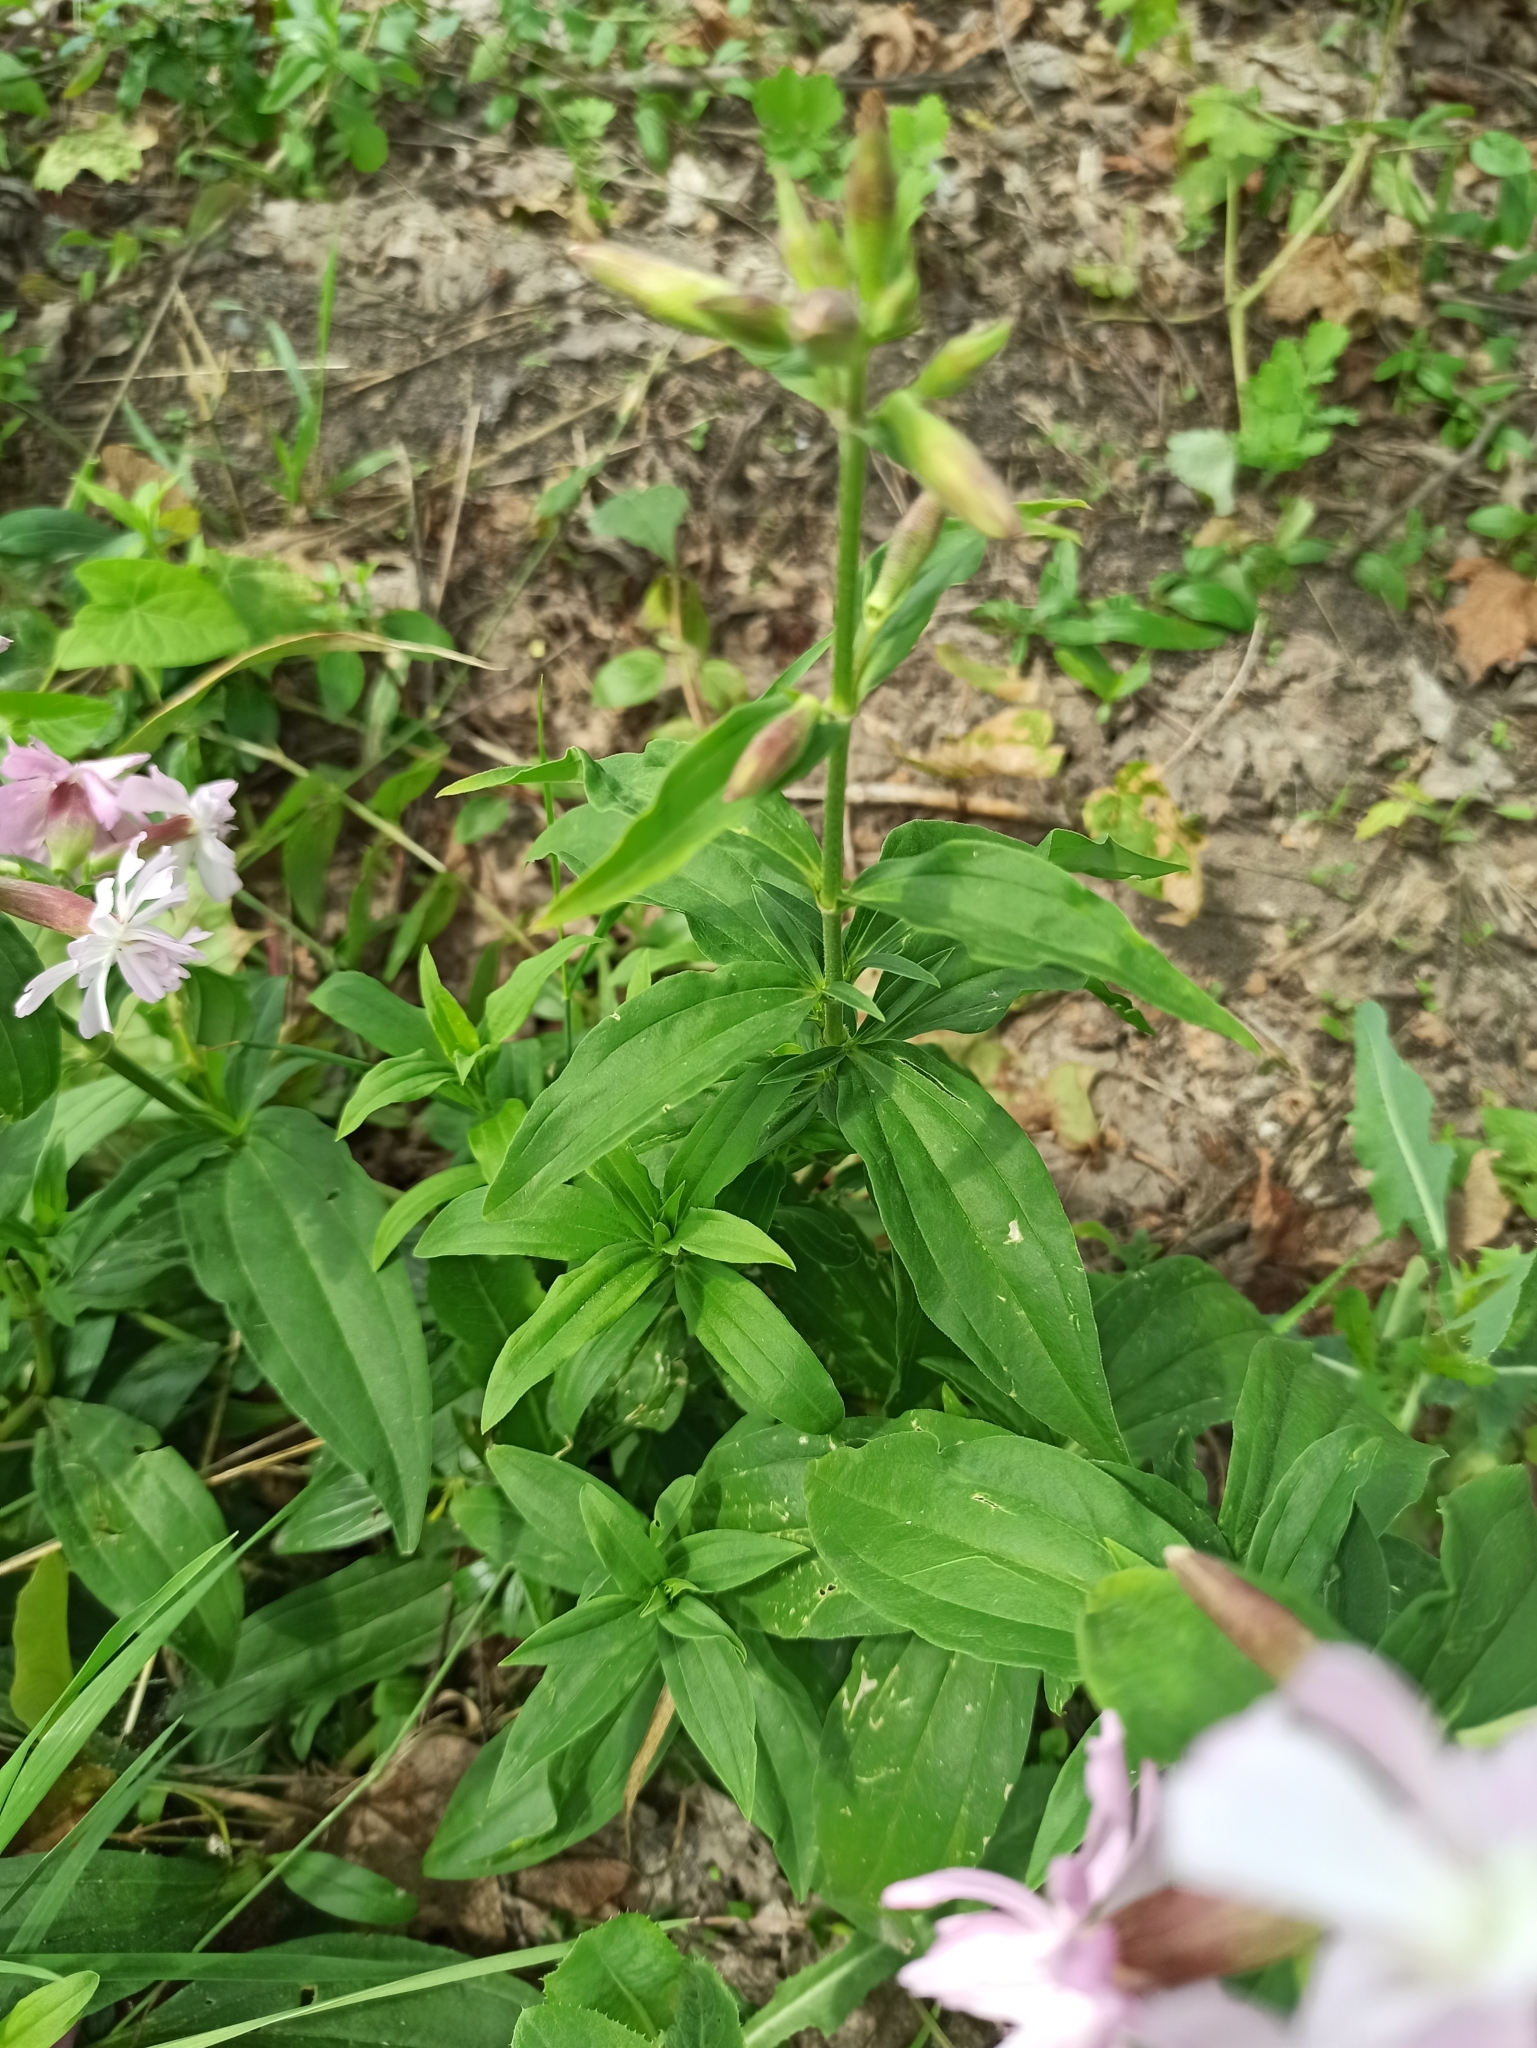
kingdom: Plantae
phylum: Tracheophyta
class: Magnoliopsida
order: Caryophyllales
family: Caryophyllaceae
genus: Saponaria
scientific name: Saponaria officinalis
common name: Soapwort
